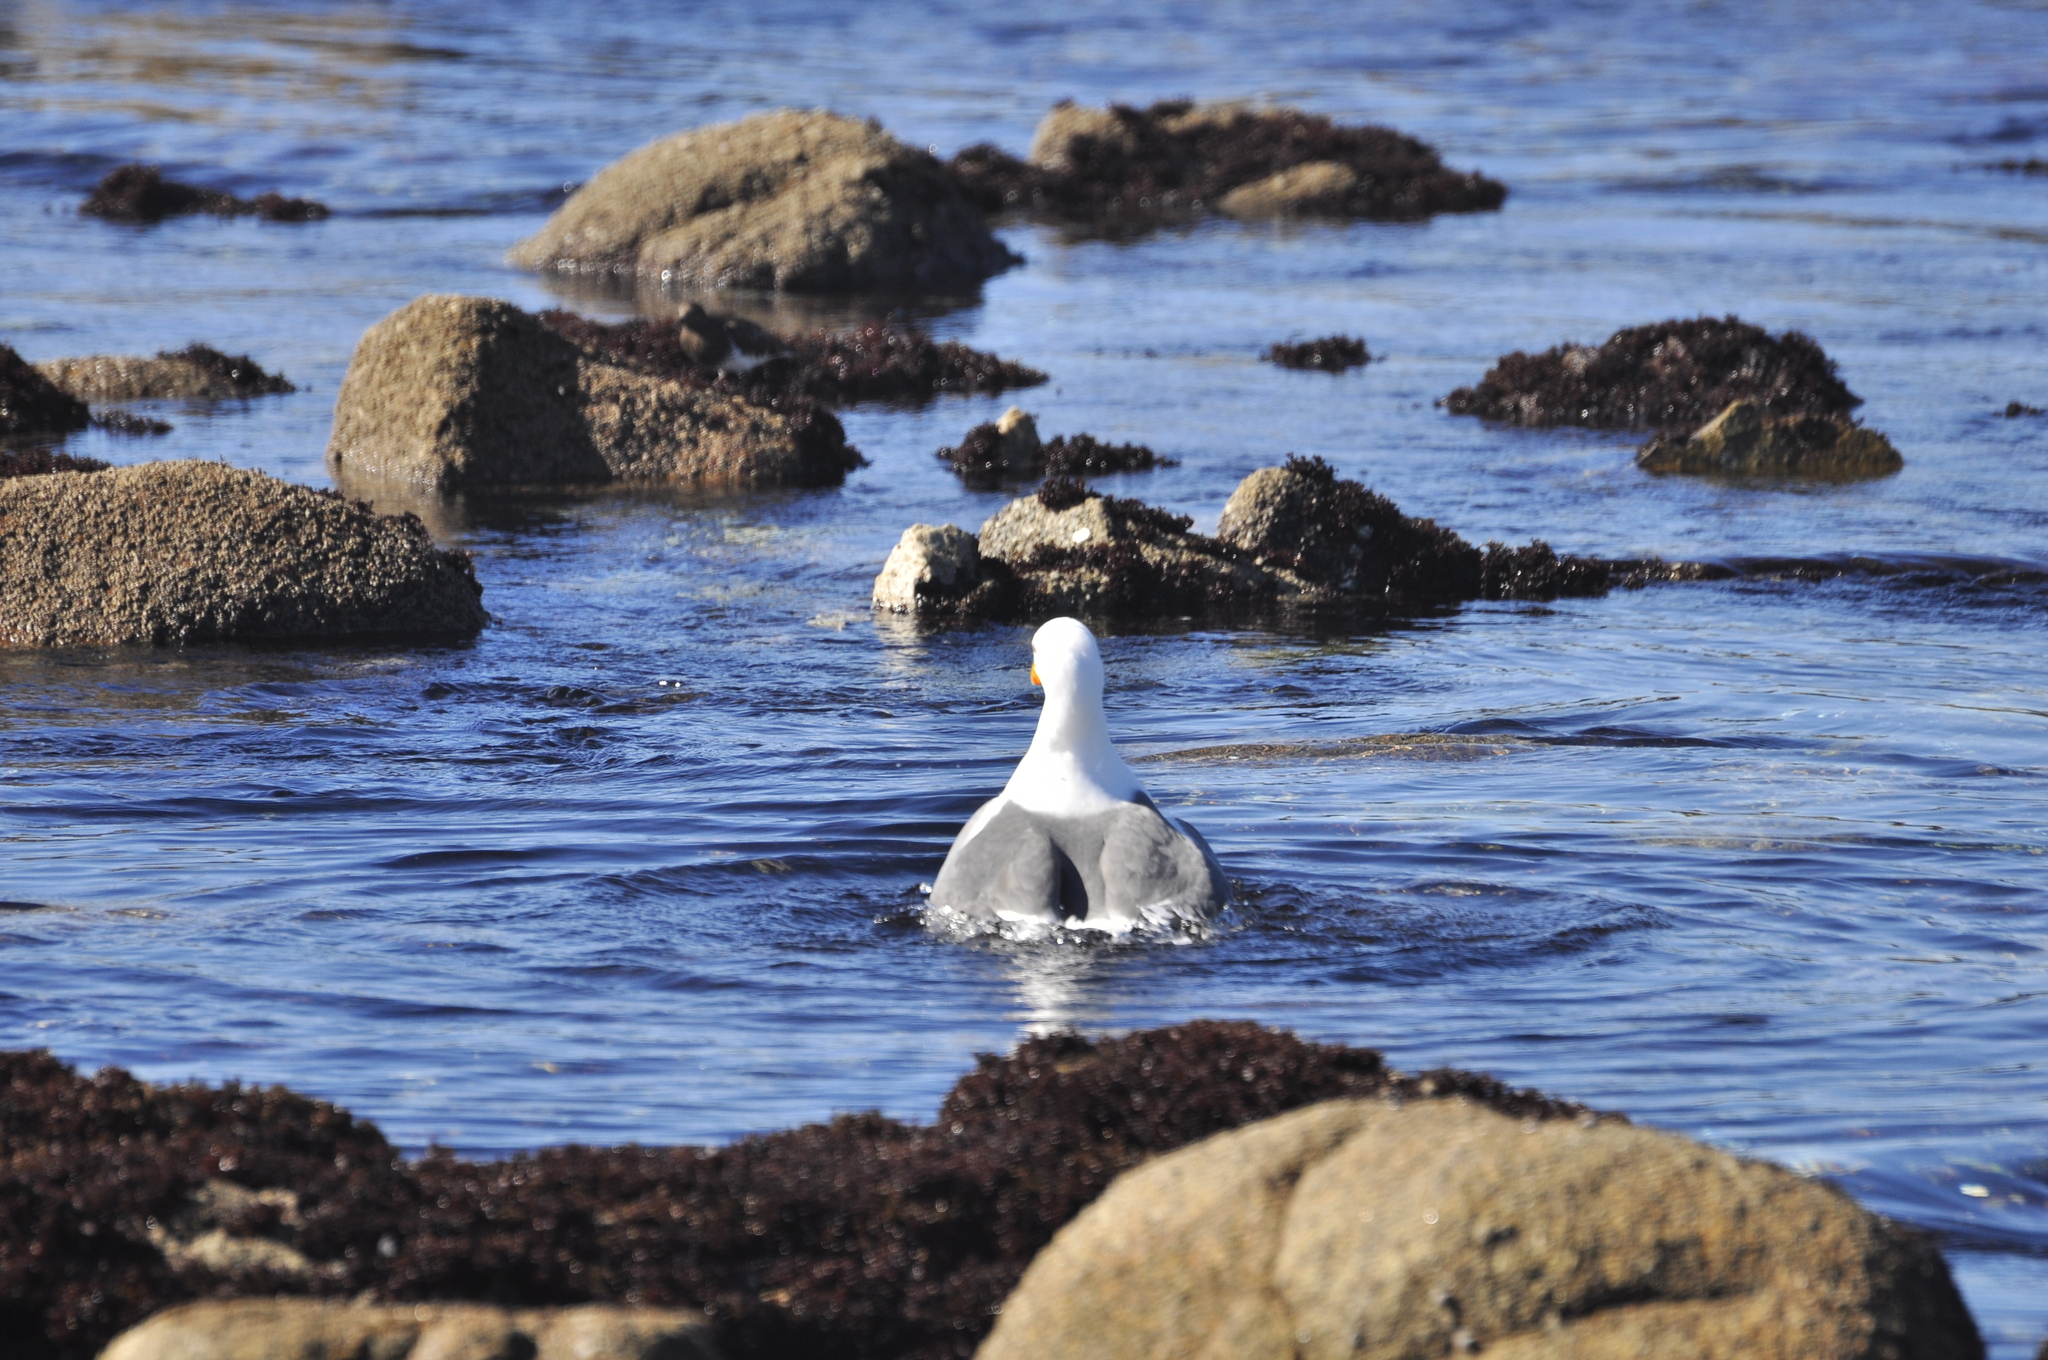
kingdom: Animalia
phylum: Chordata
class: Aves
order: Charadriiformes
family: Laridae
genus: Larus
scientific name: Larus occidentalis
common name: Western gull
